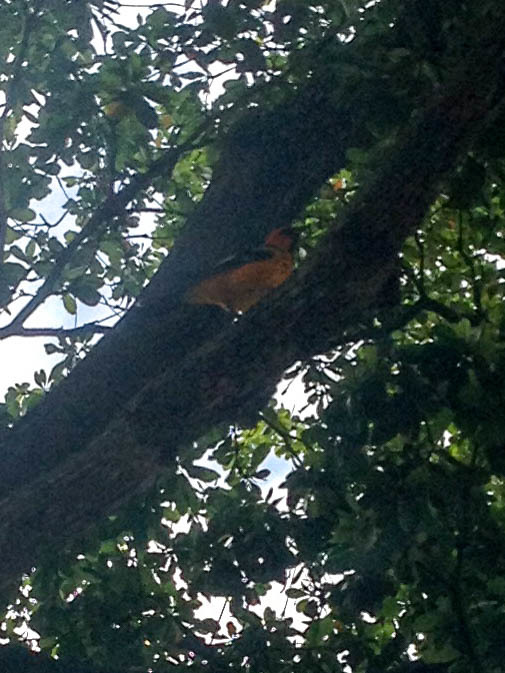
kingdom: Animalia
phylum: Chordata
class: Aves
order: Passeriformes
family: Icteridae
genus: Icterus
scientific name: Icterus pectoralis
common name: Spot-breasted oriole
